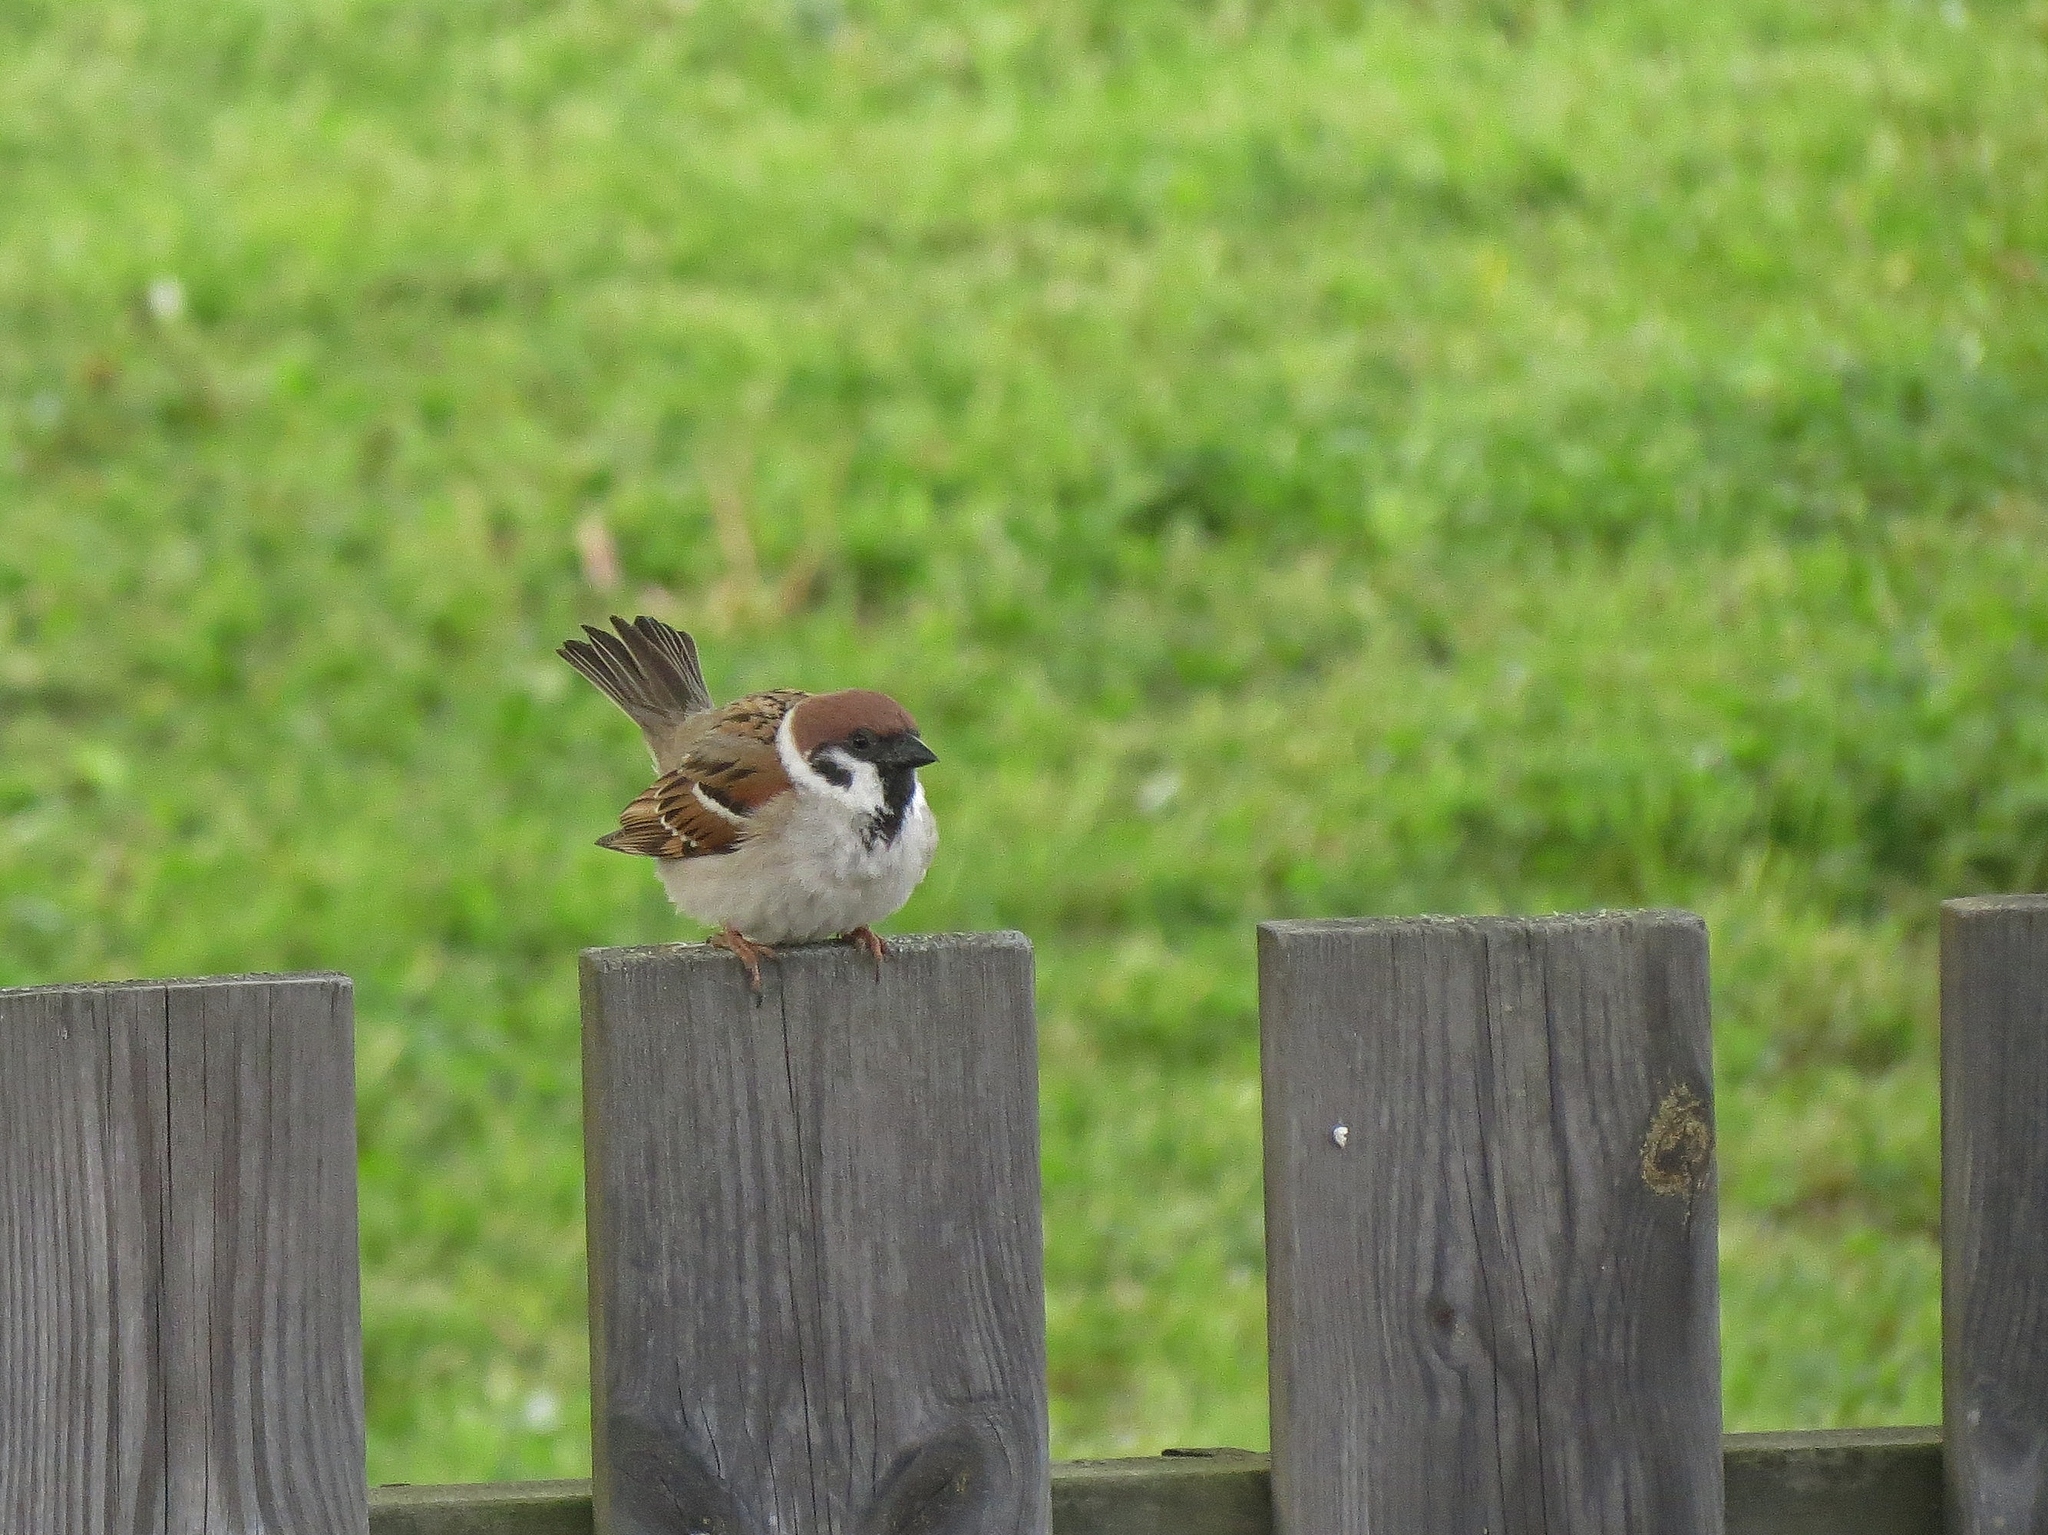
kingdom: Animalia
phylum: Chordata
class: Aves
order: Passeriformes
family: Passeridae
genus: Passer
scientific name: Passer montanus
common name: Eurasian tree sparrow
